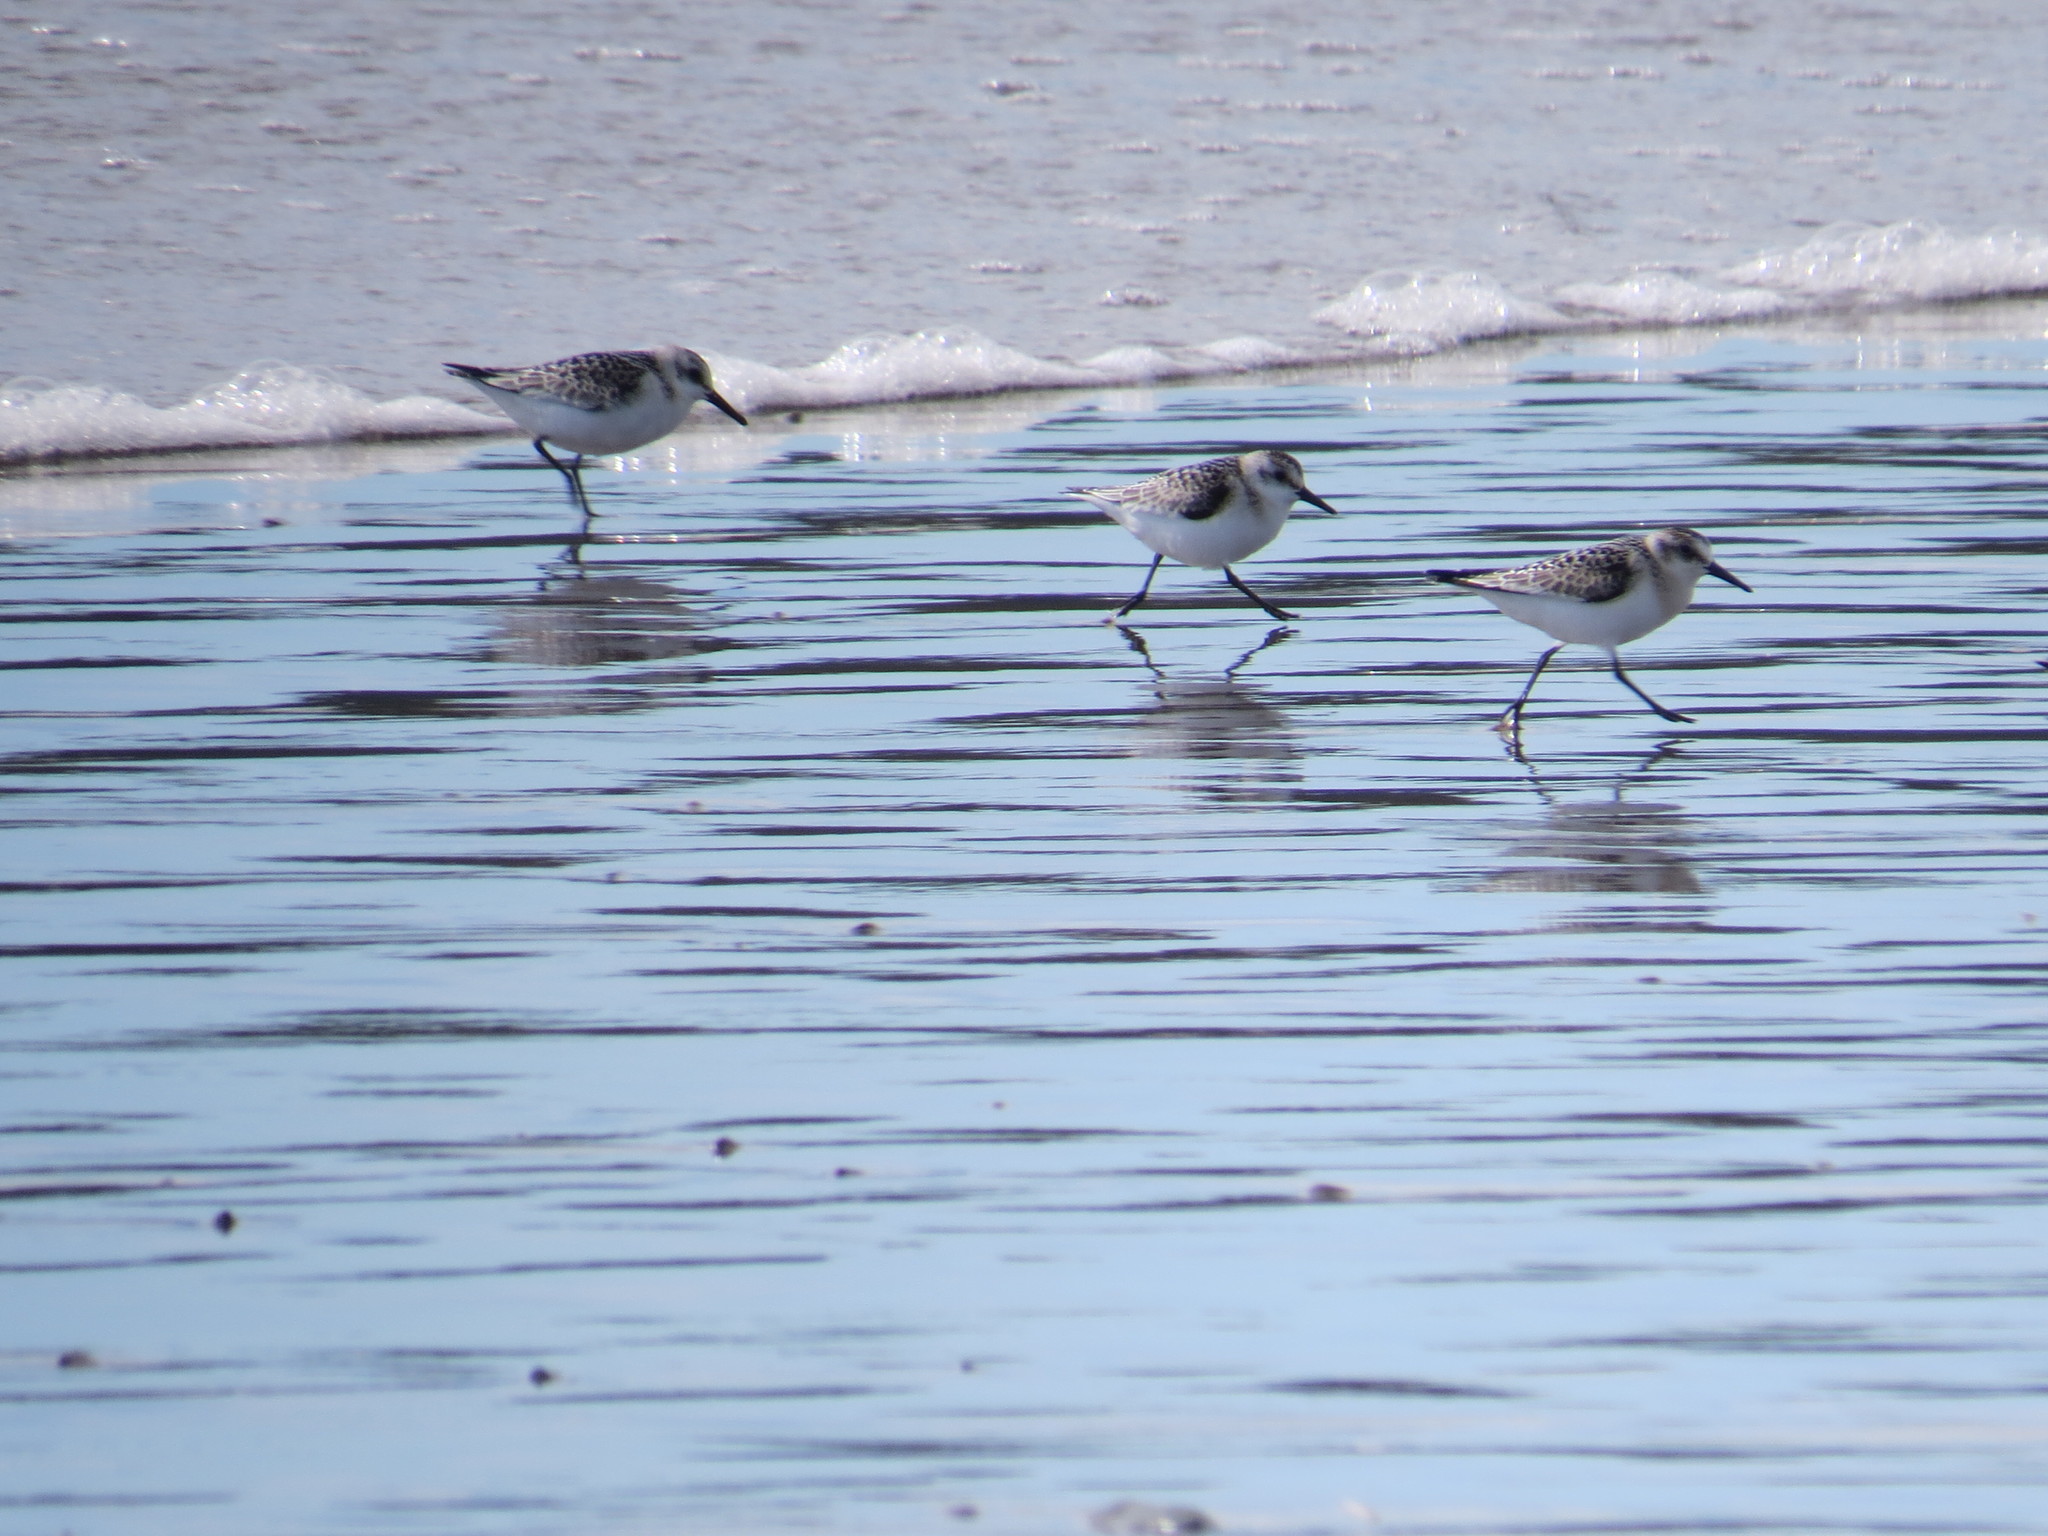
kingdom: Animalia
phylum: Chordata
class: Aves
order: Charadriiformes
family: Scolopacidae
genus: Calidris
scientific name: Calidris alba
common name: Sanderling
